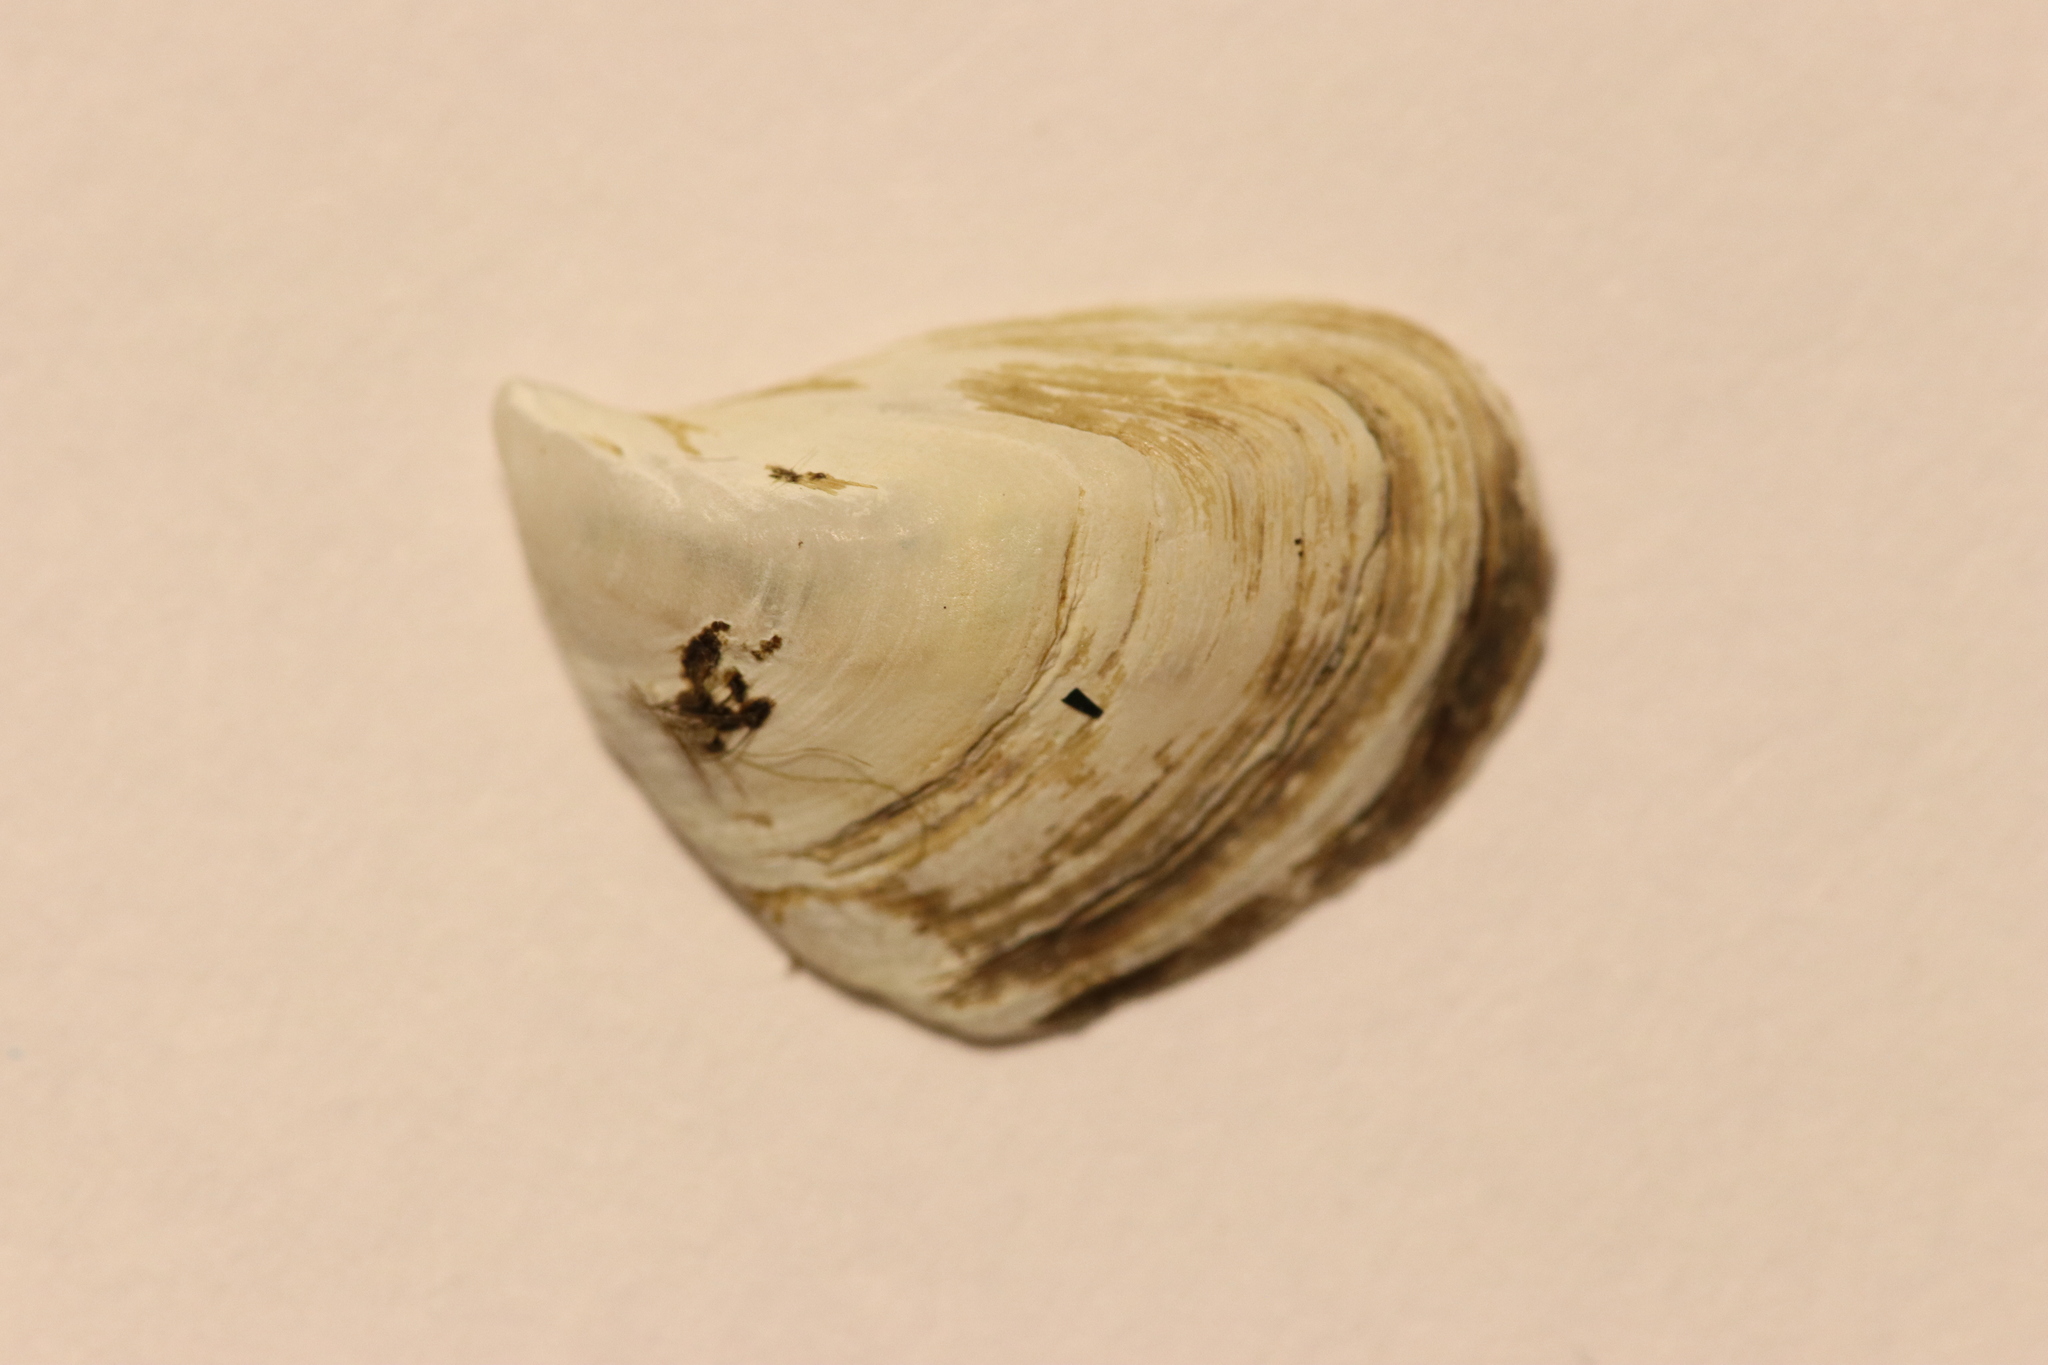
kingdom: Animalia
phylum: Mollusca
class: Bivalvia
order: Myida
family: Dreissenidae
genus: Dreissena
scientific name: Dreissena bugensis
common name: Quagga mussel
